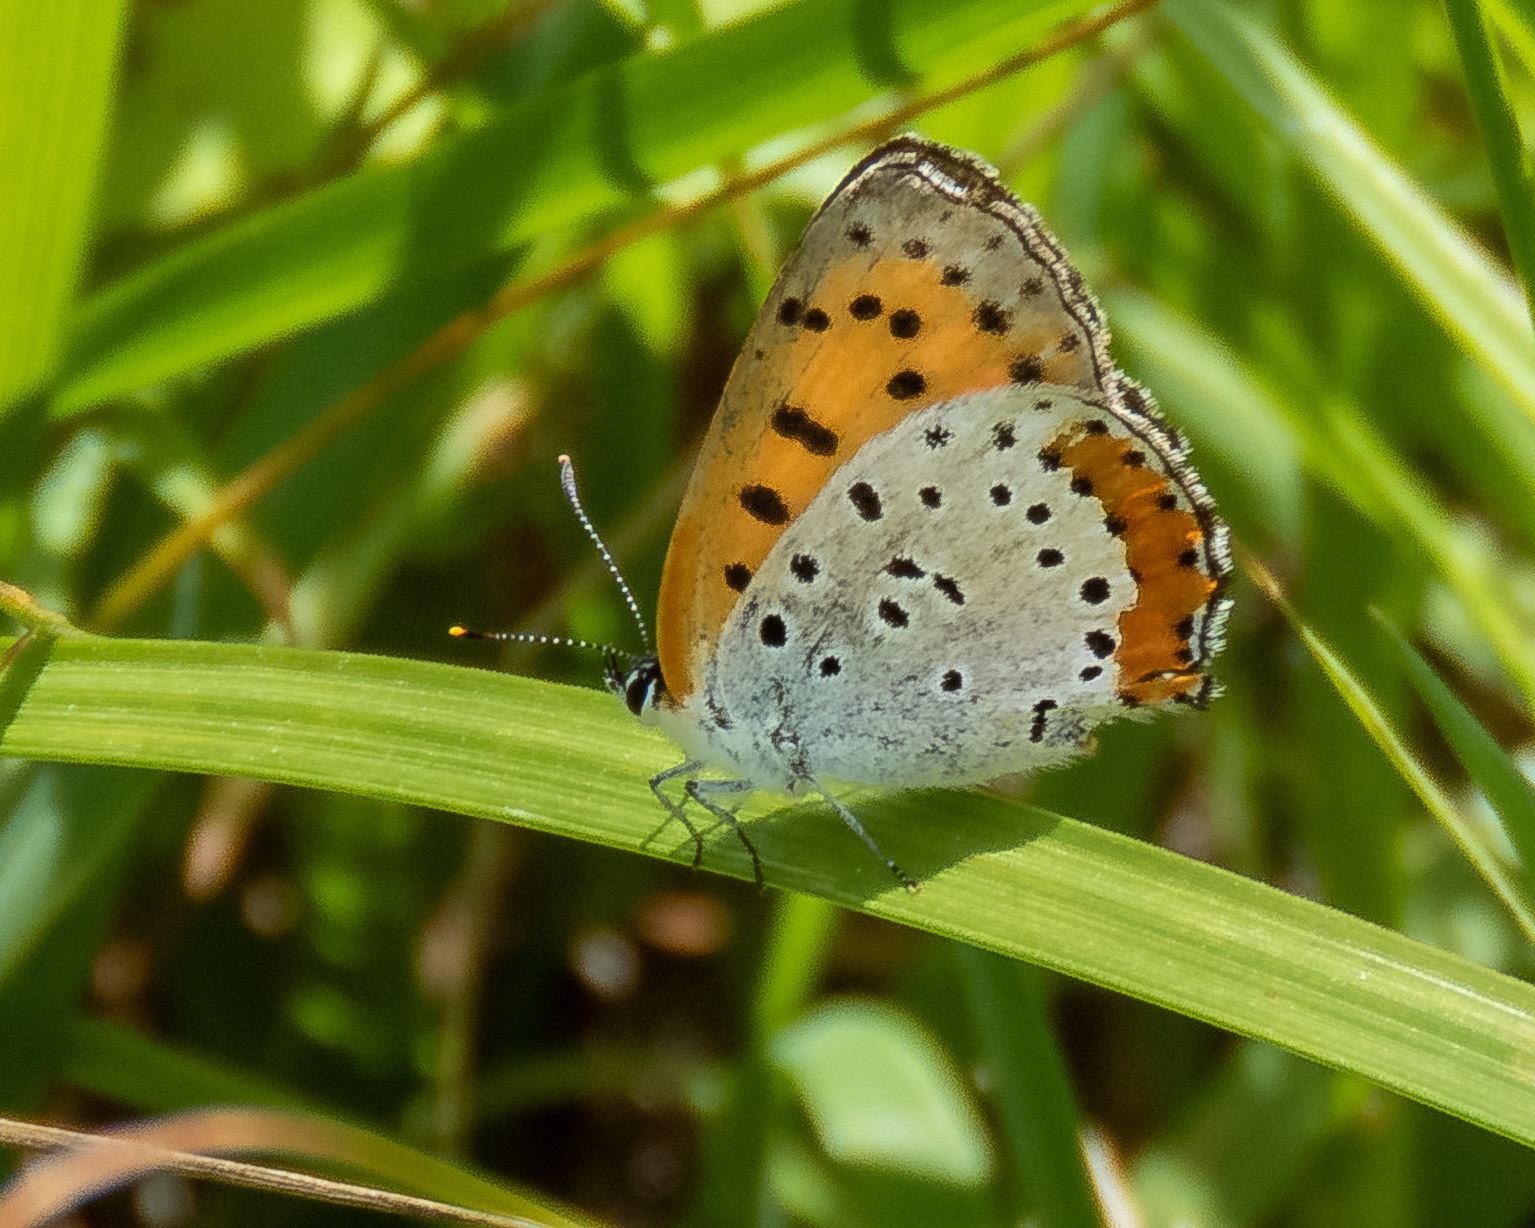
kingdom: Animalia
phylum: Arthropoda
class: Insecta
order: Lepidoptera
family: Lycaenidae
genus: Tharsalea
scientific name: Tharsalea hyllus
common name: Bronze copper
